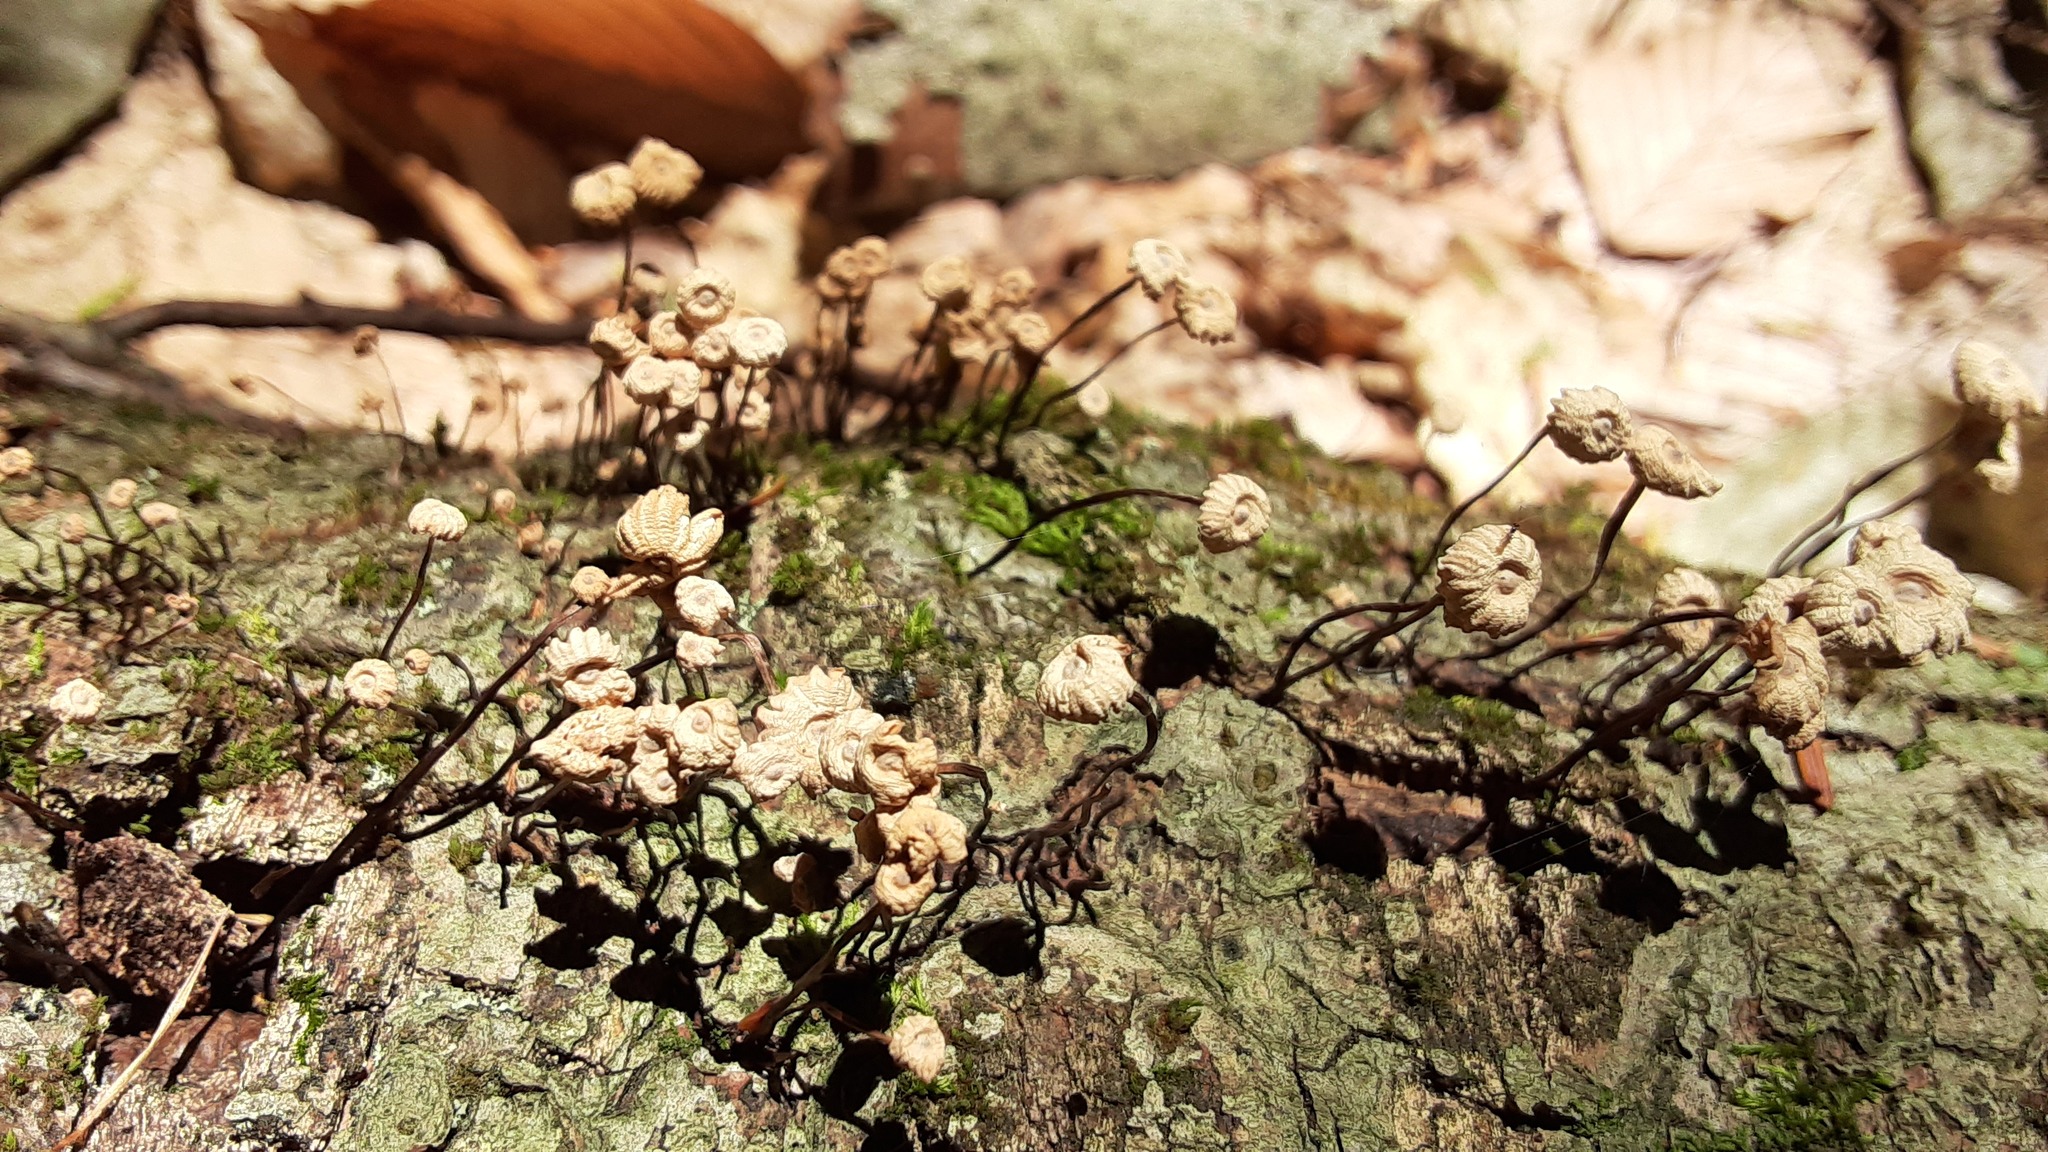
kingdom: Fungi
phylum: Basidiomycota
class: Agaricomycetes
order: Agaricales
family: Marasmiaceae
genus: Marasmius
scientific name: Marasmius rotula
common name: Collared parachute
